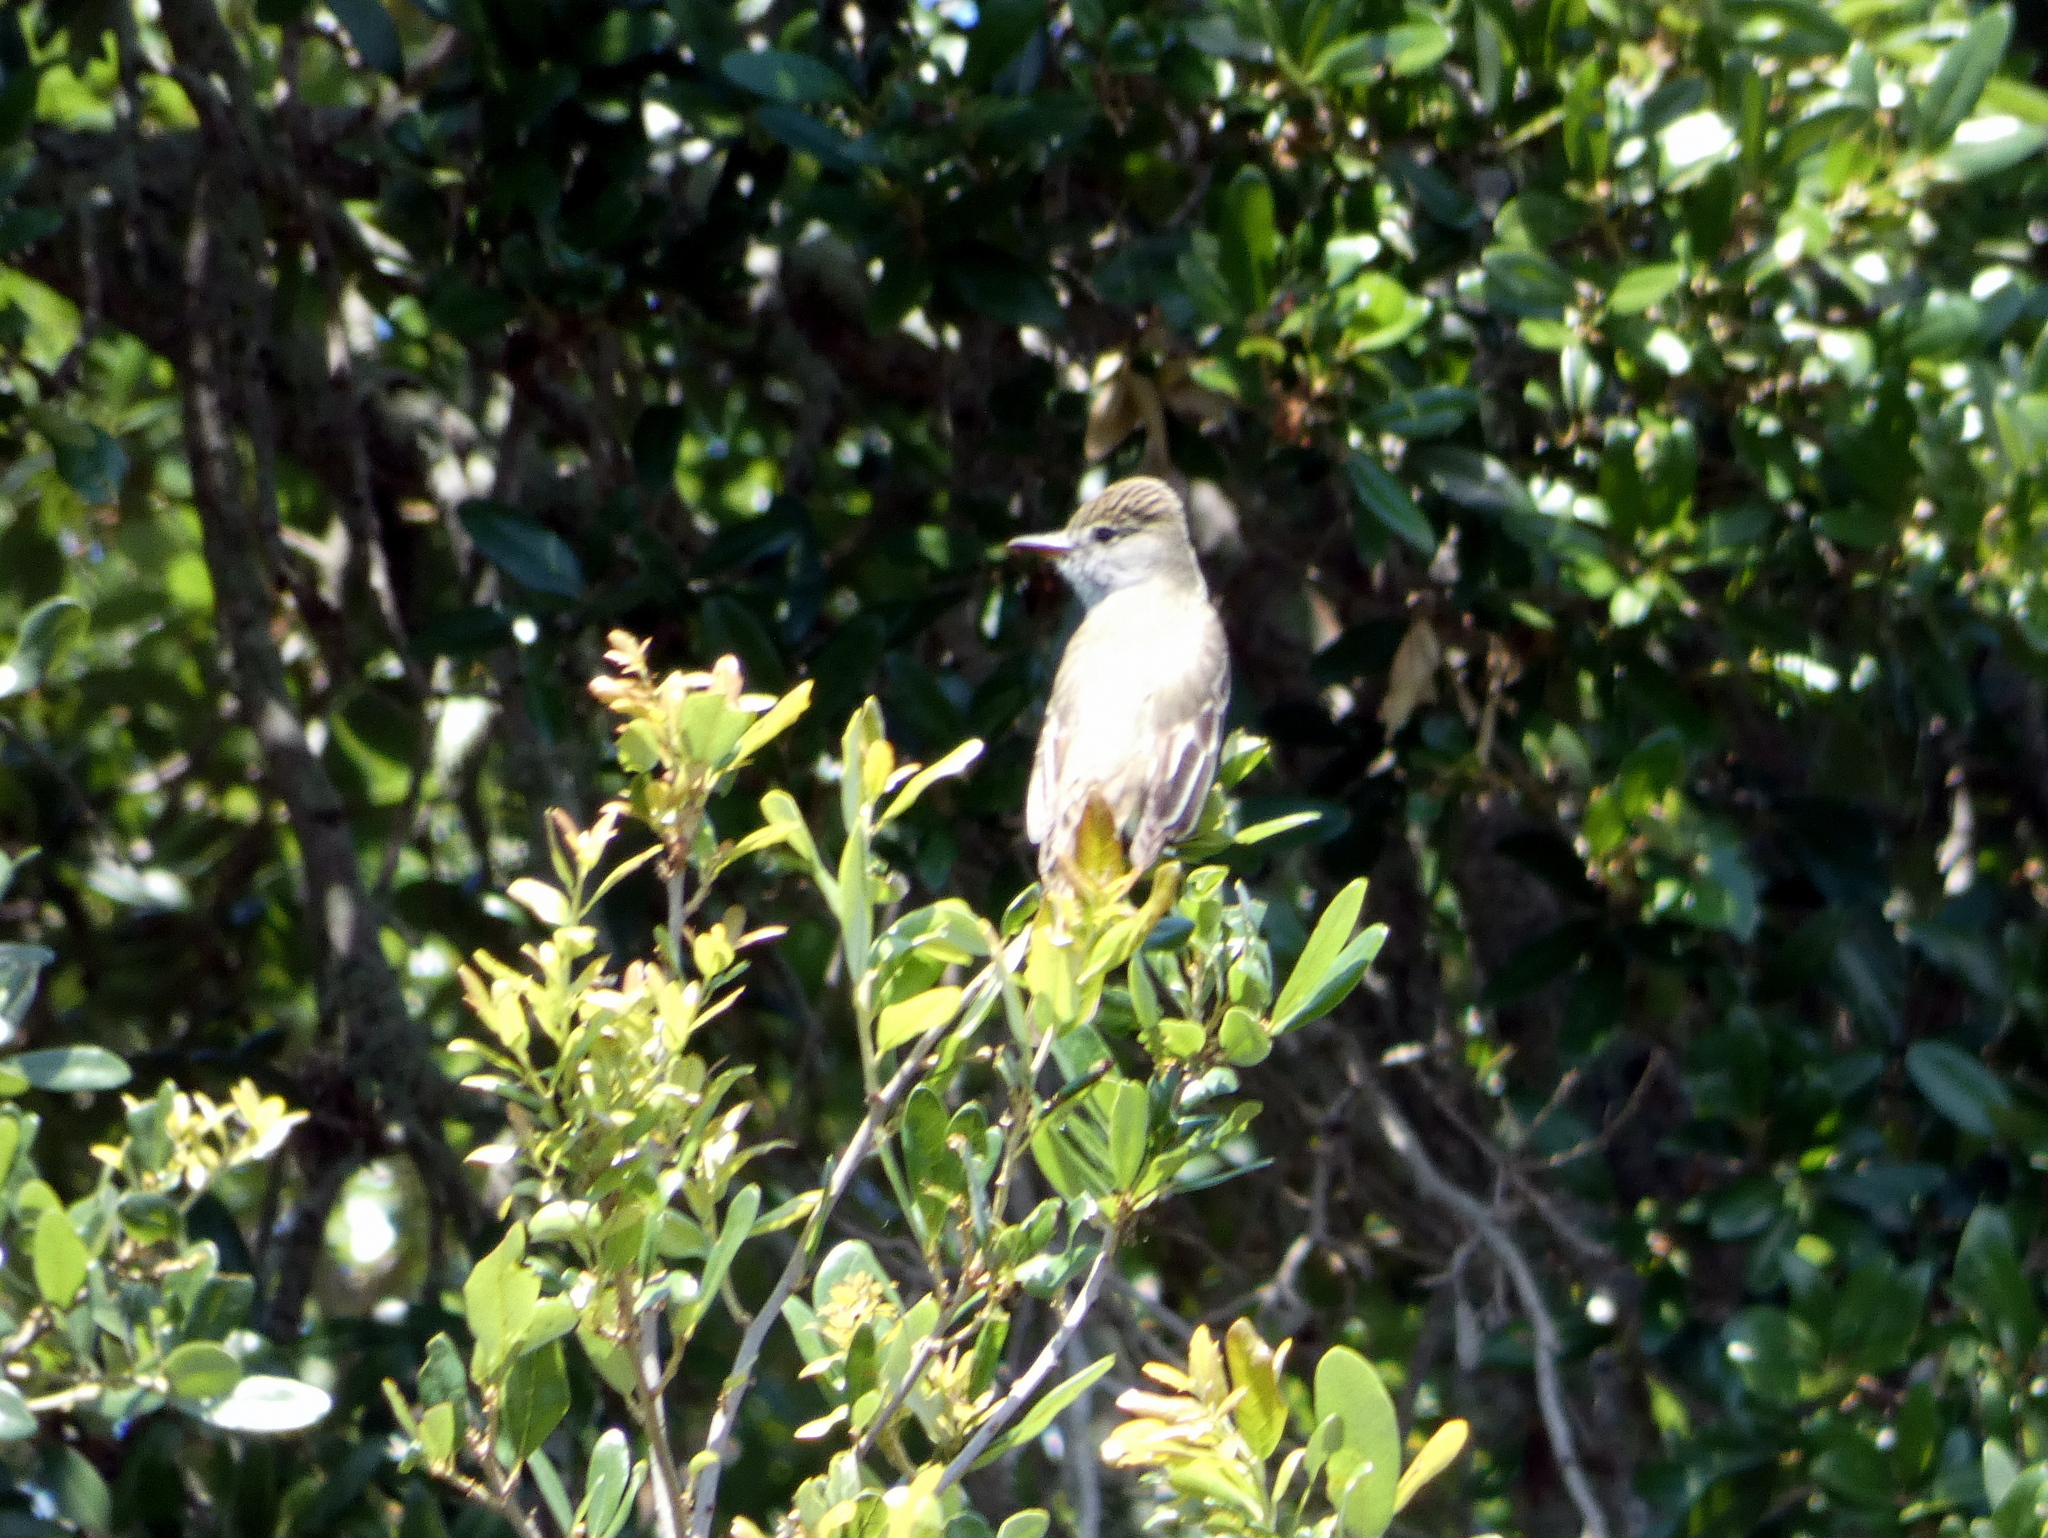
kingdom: Animalia
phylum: Chordata
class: Aves
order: Passeriformes
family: Tyrannidae
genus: Myiarchus
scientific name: Myiarchus crinitus
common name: Great crested flycatcher
